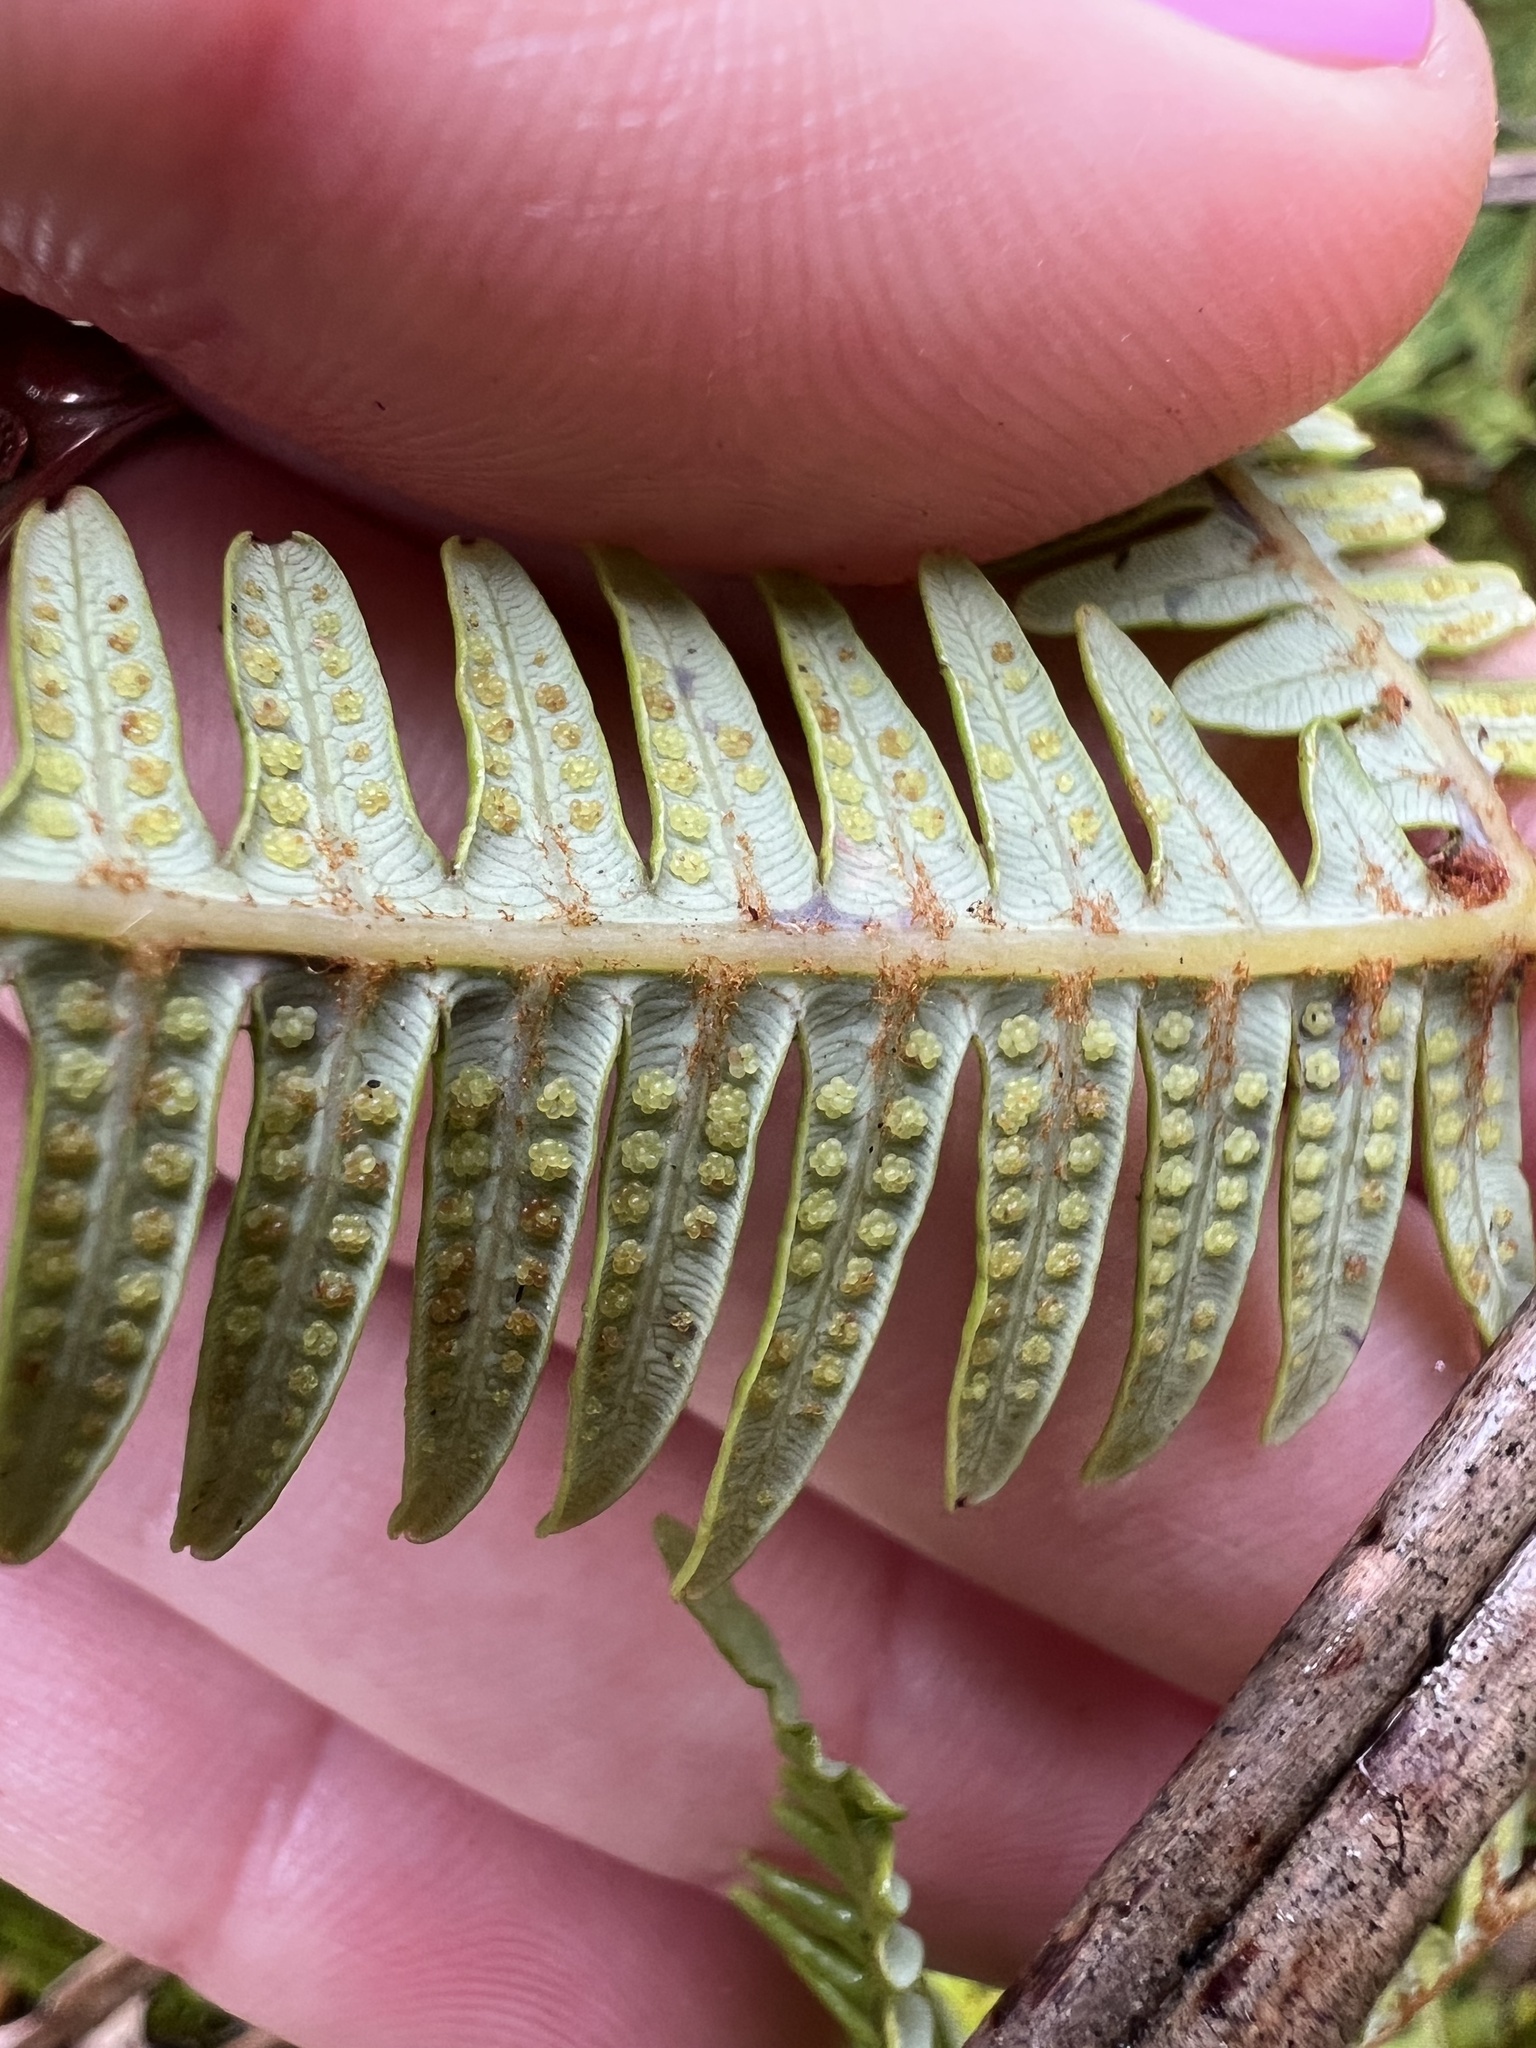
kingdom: Plantae
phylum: Tracheophyta
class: Polypodiopsida
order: Gleicheniales
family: Gleicheniaceae
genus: Dicranopteris
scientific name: Dicranopteris linearis
